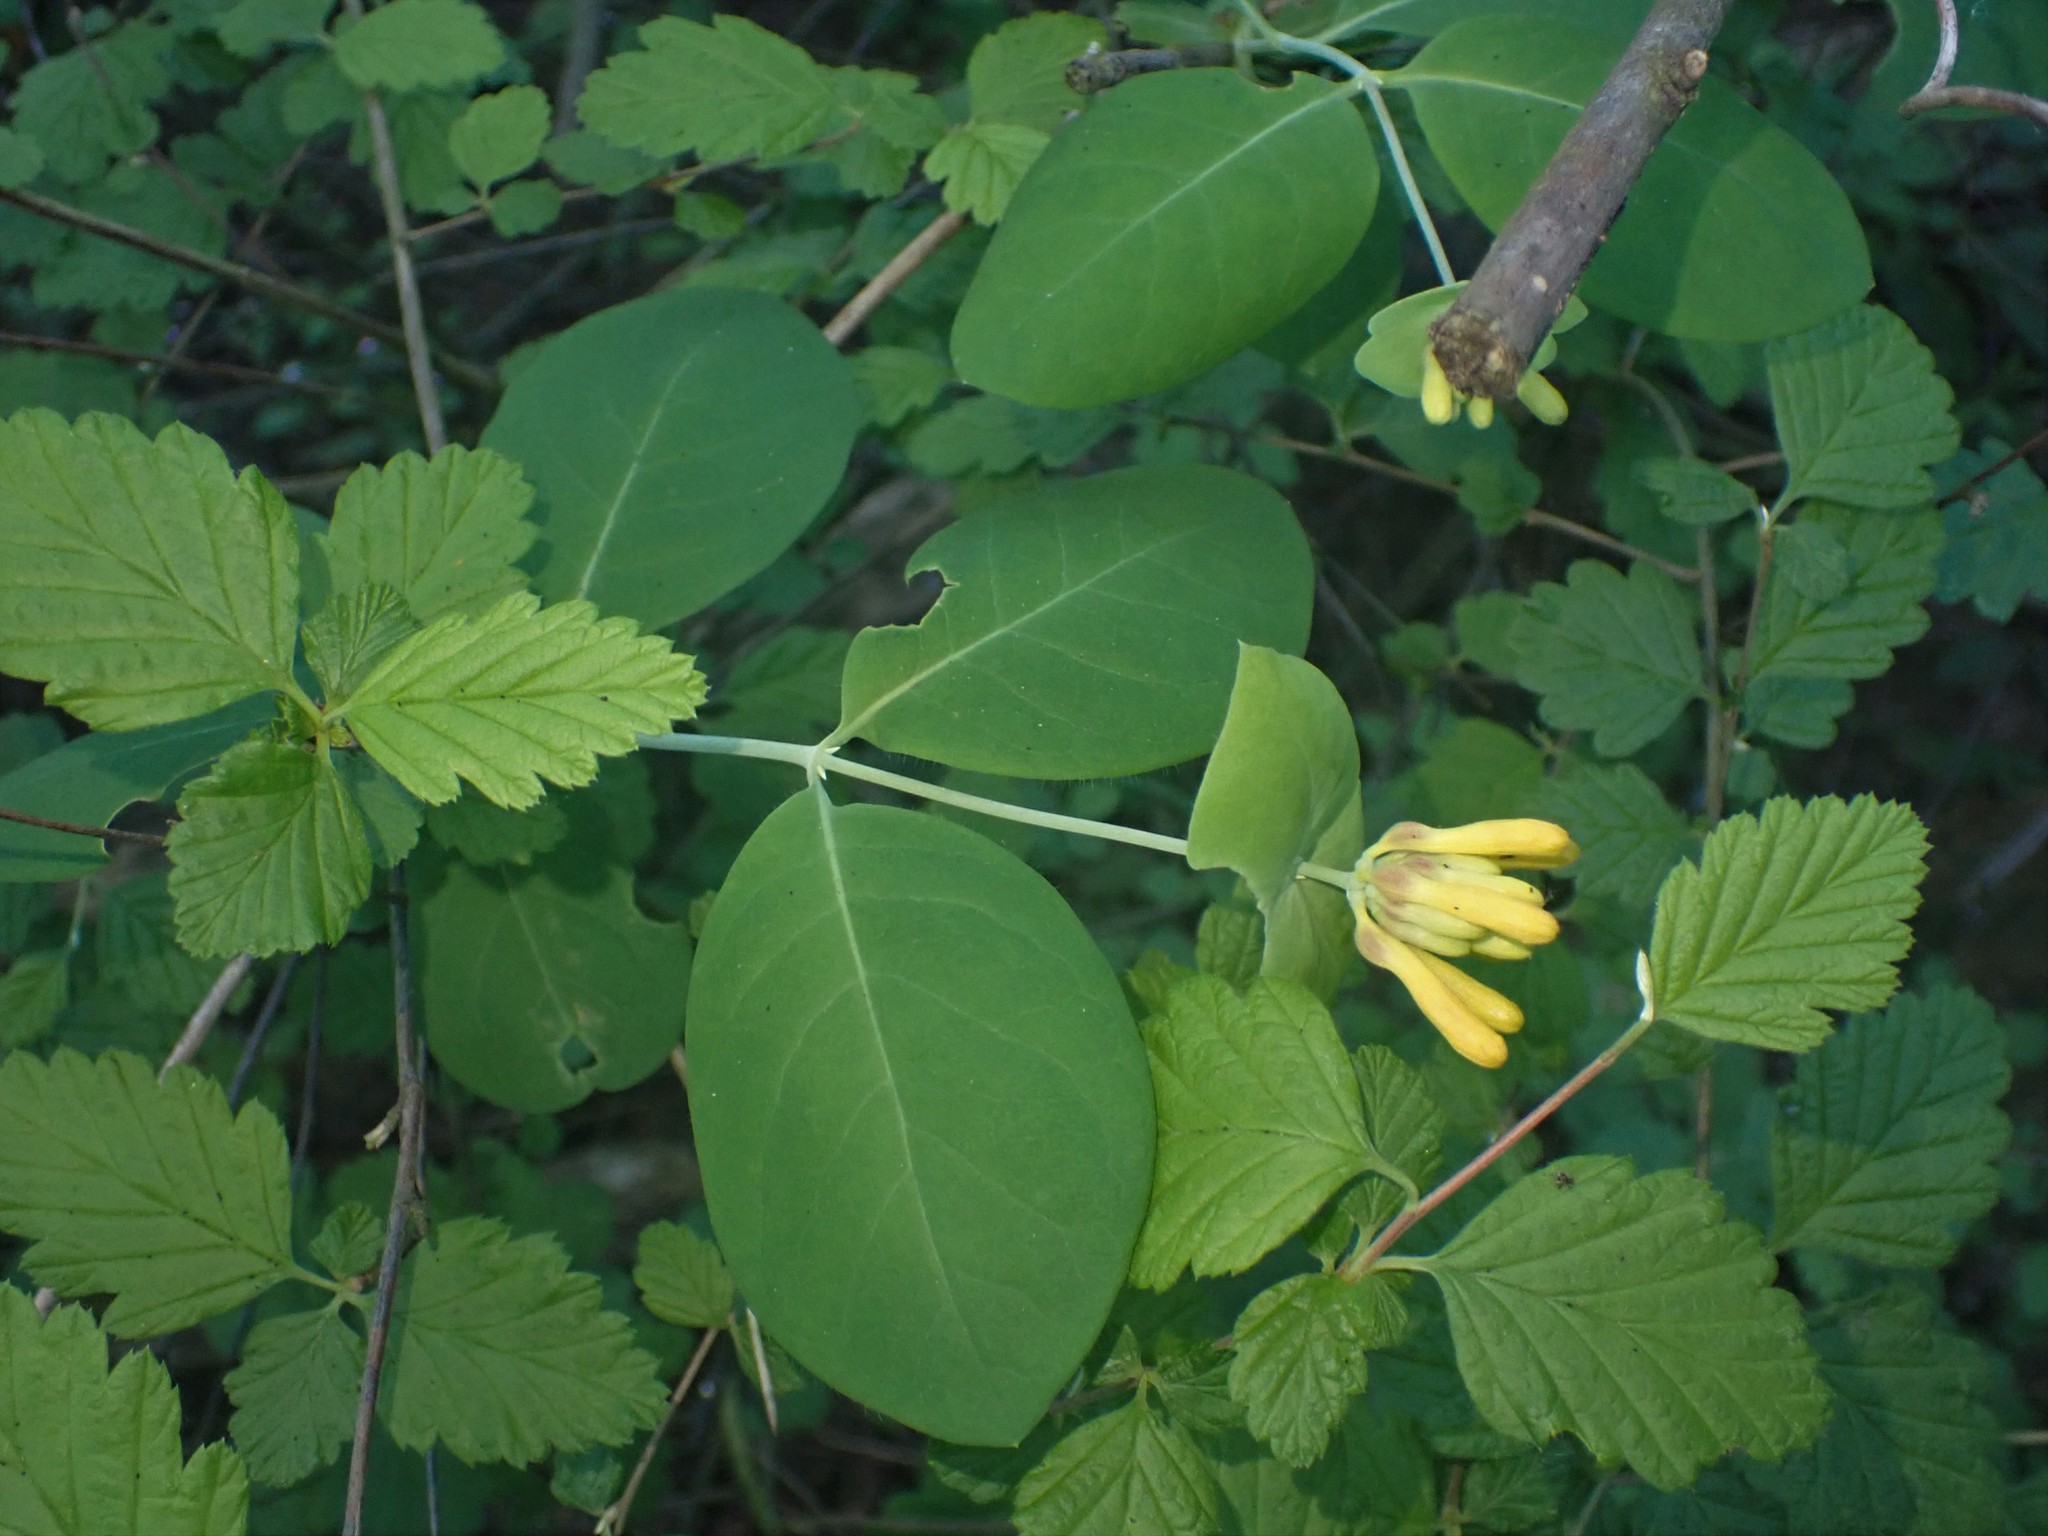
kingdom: Plantae
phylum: Tracheophyta
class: Magnoliopsida
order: Dipsacales
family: Caprifoliaceae
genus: Lonicera
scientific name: Lonicera ciliosa
